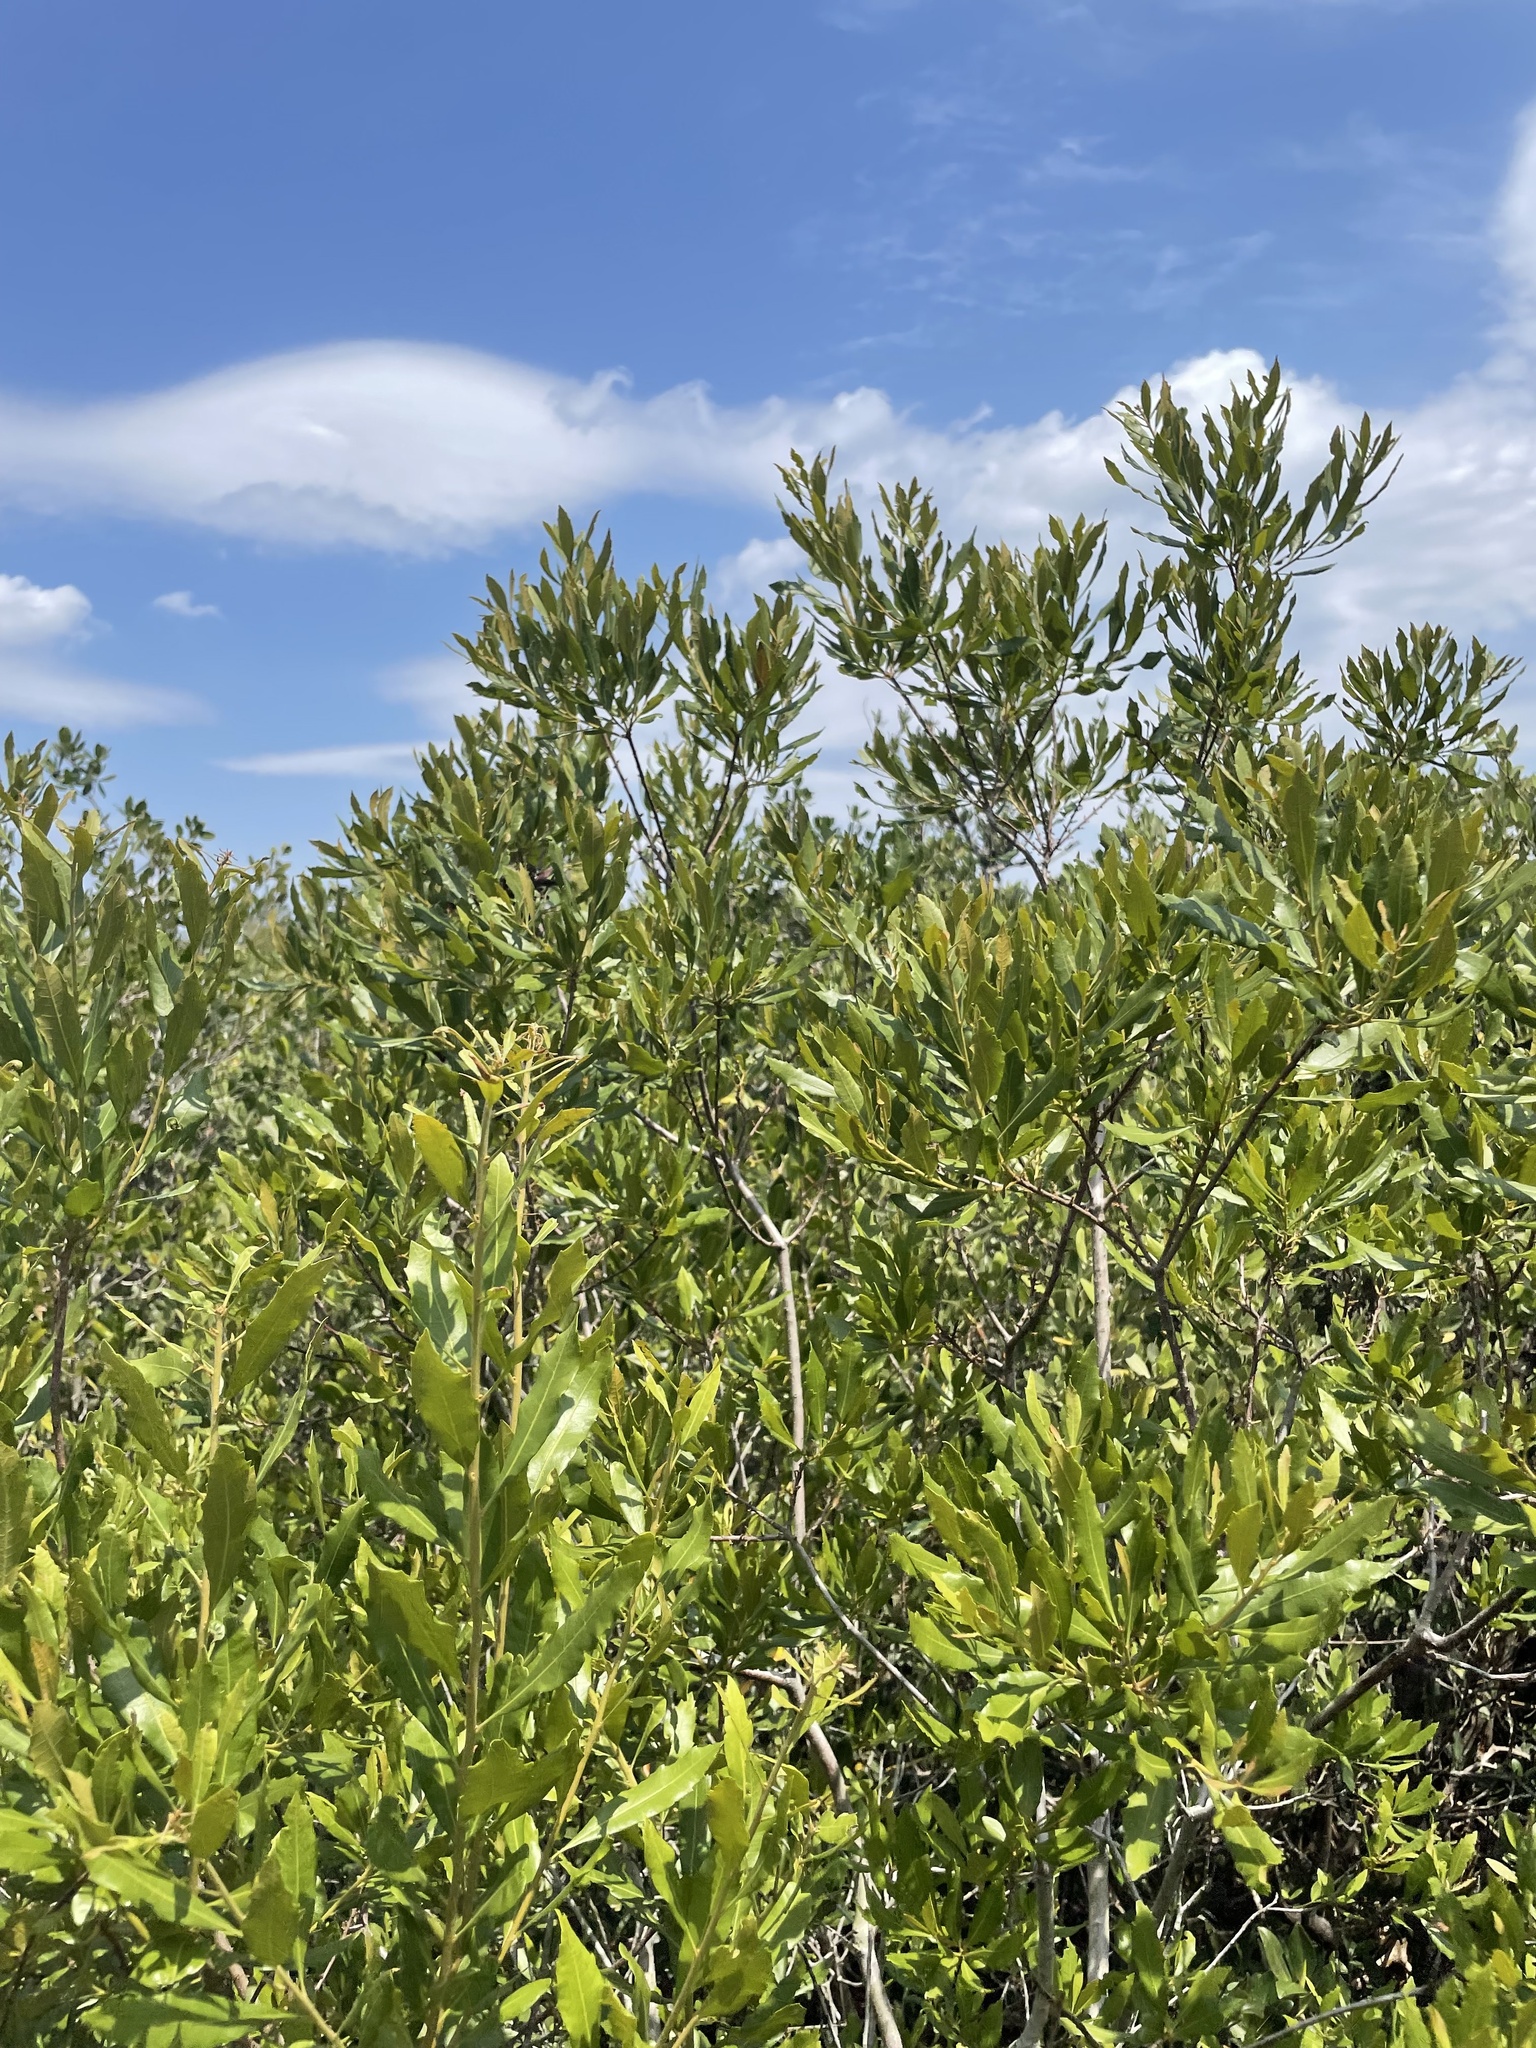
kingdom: Plantae
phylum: Tracheophyta
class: Magnoliopsida
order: Fagales
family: Myricaceae
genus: Morella
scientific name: Morella cerifera
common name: Wax myrtle
